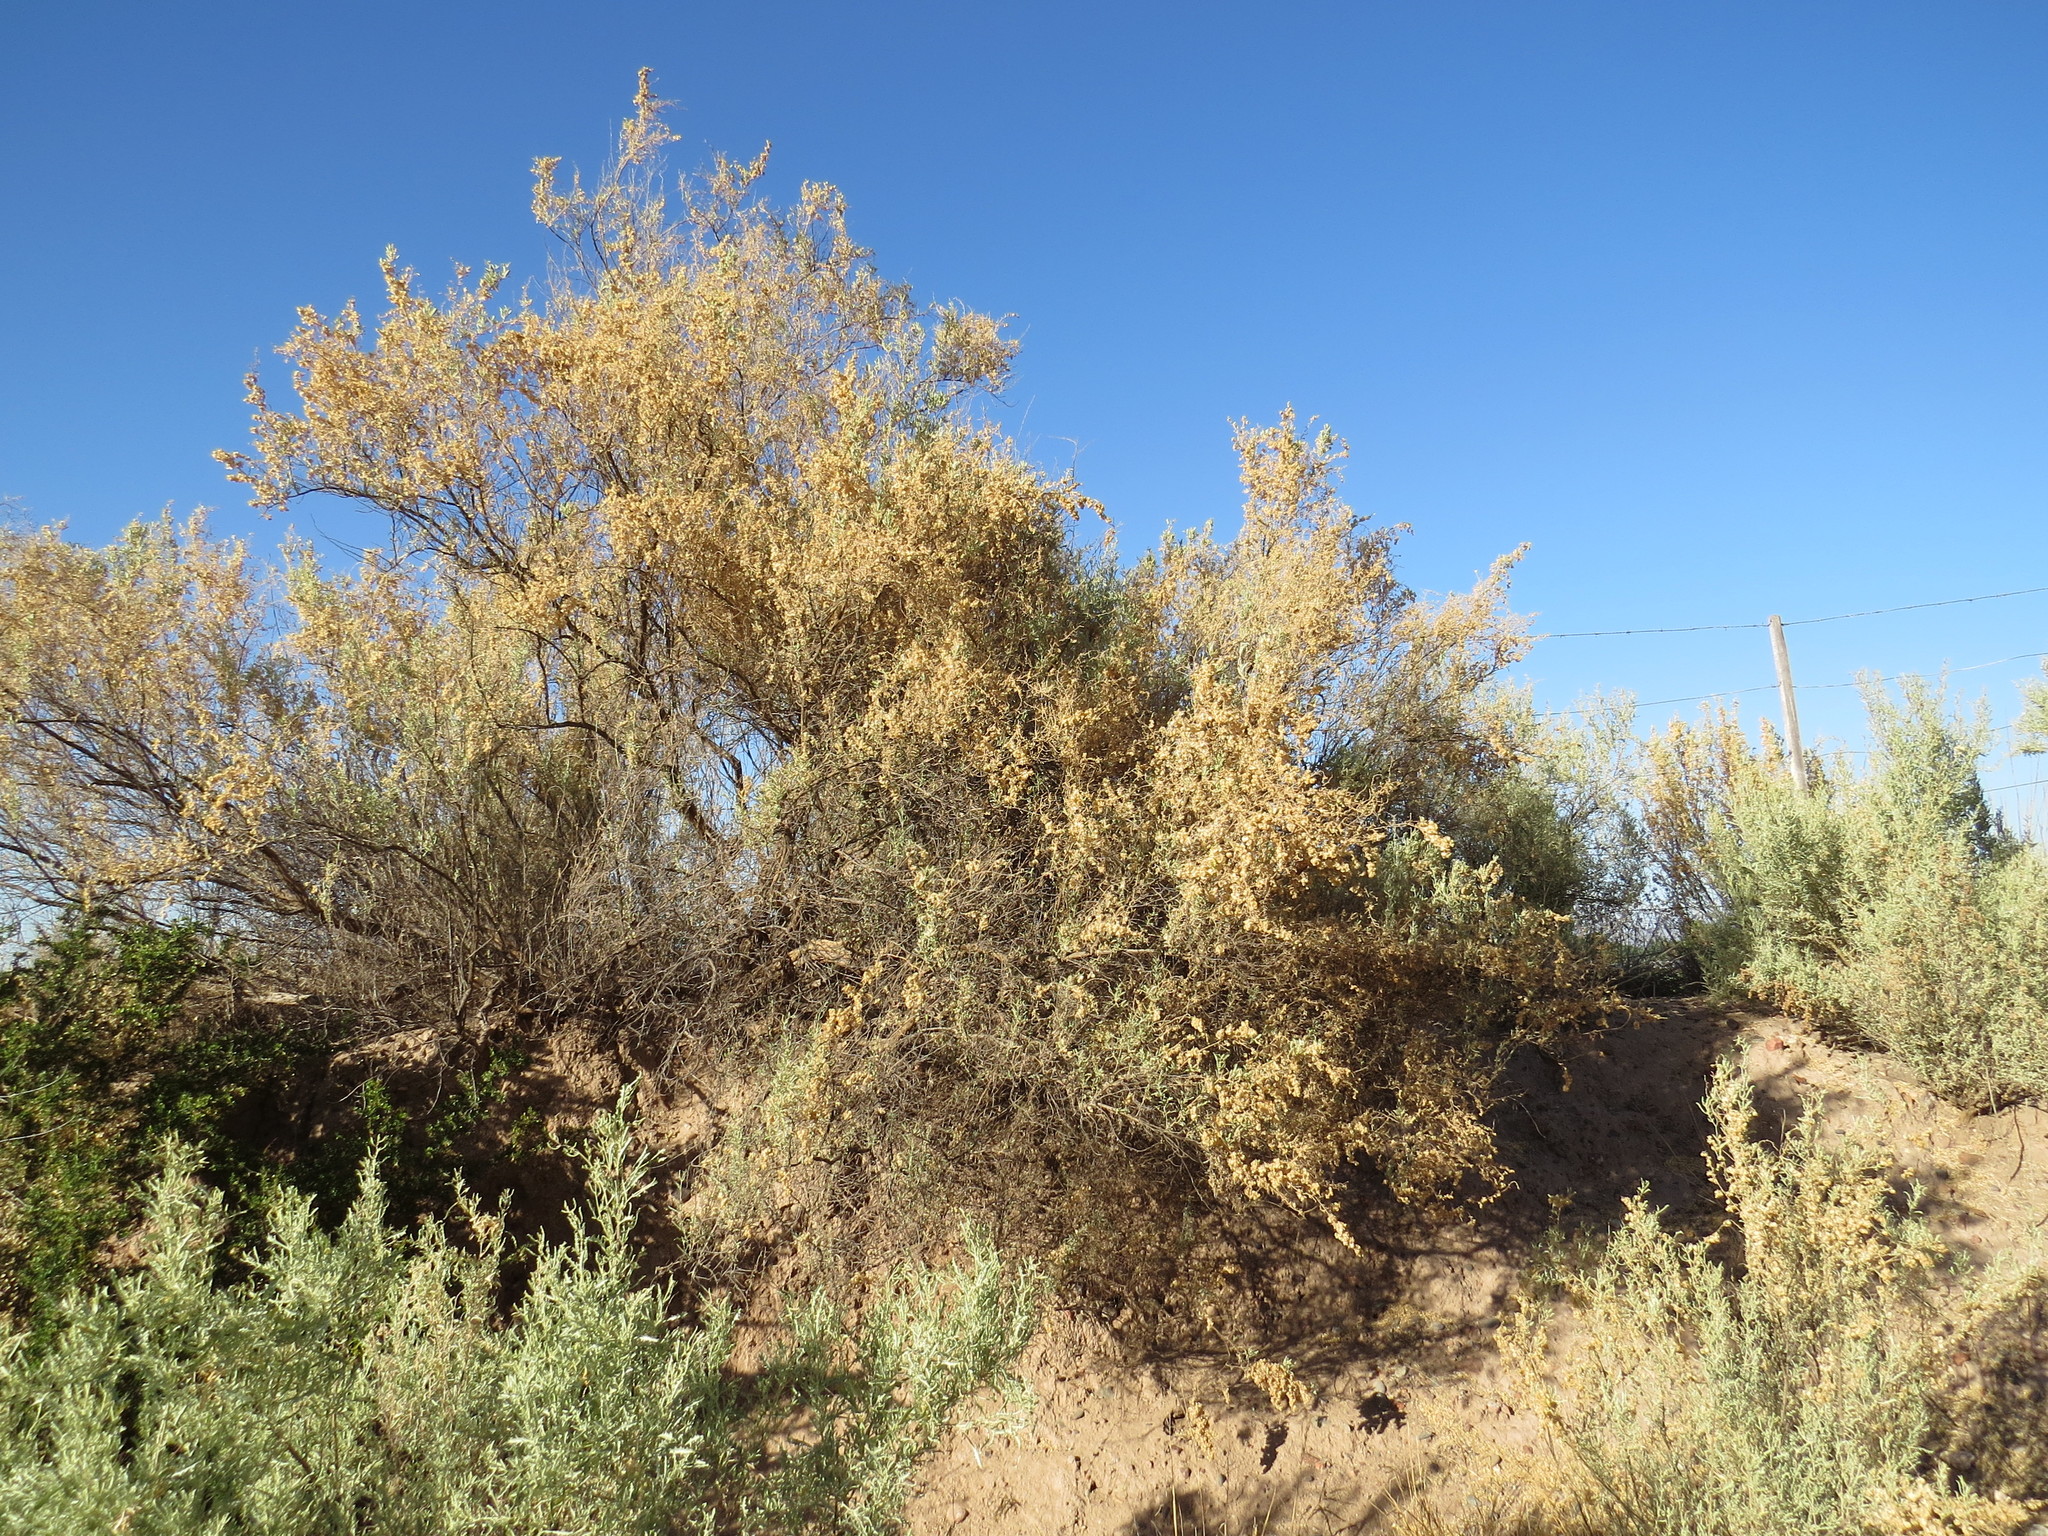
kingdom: Plantae
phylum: Tracheophyta
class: Magnoliopsida
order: Caryophyllales
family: Amaranthaceae
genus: Atriplex
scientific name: Atriplex lampa
